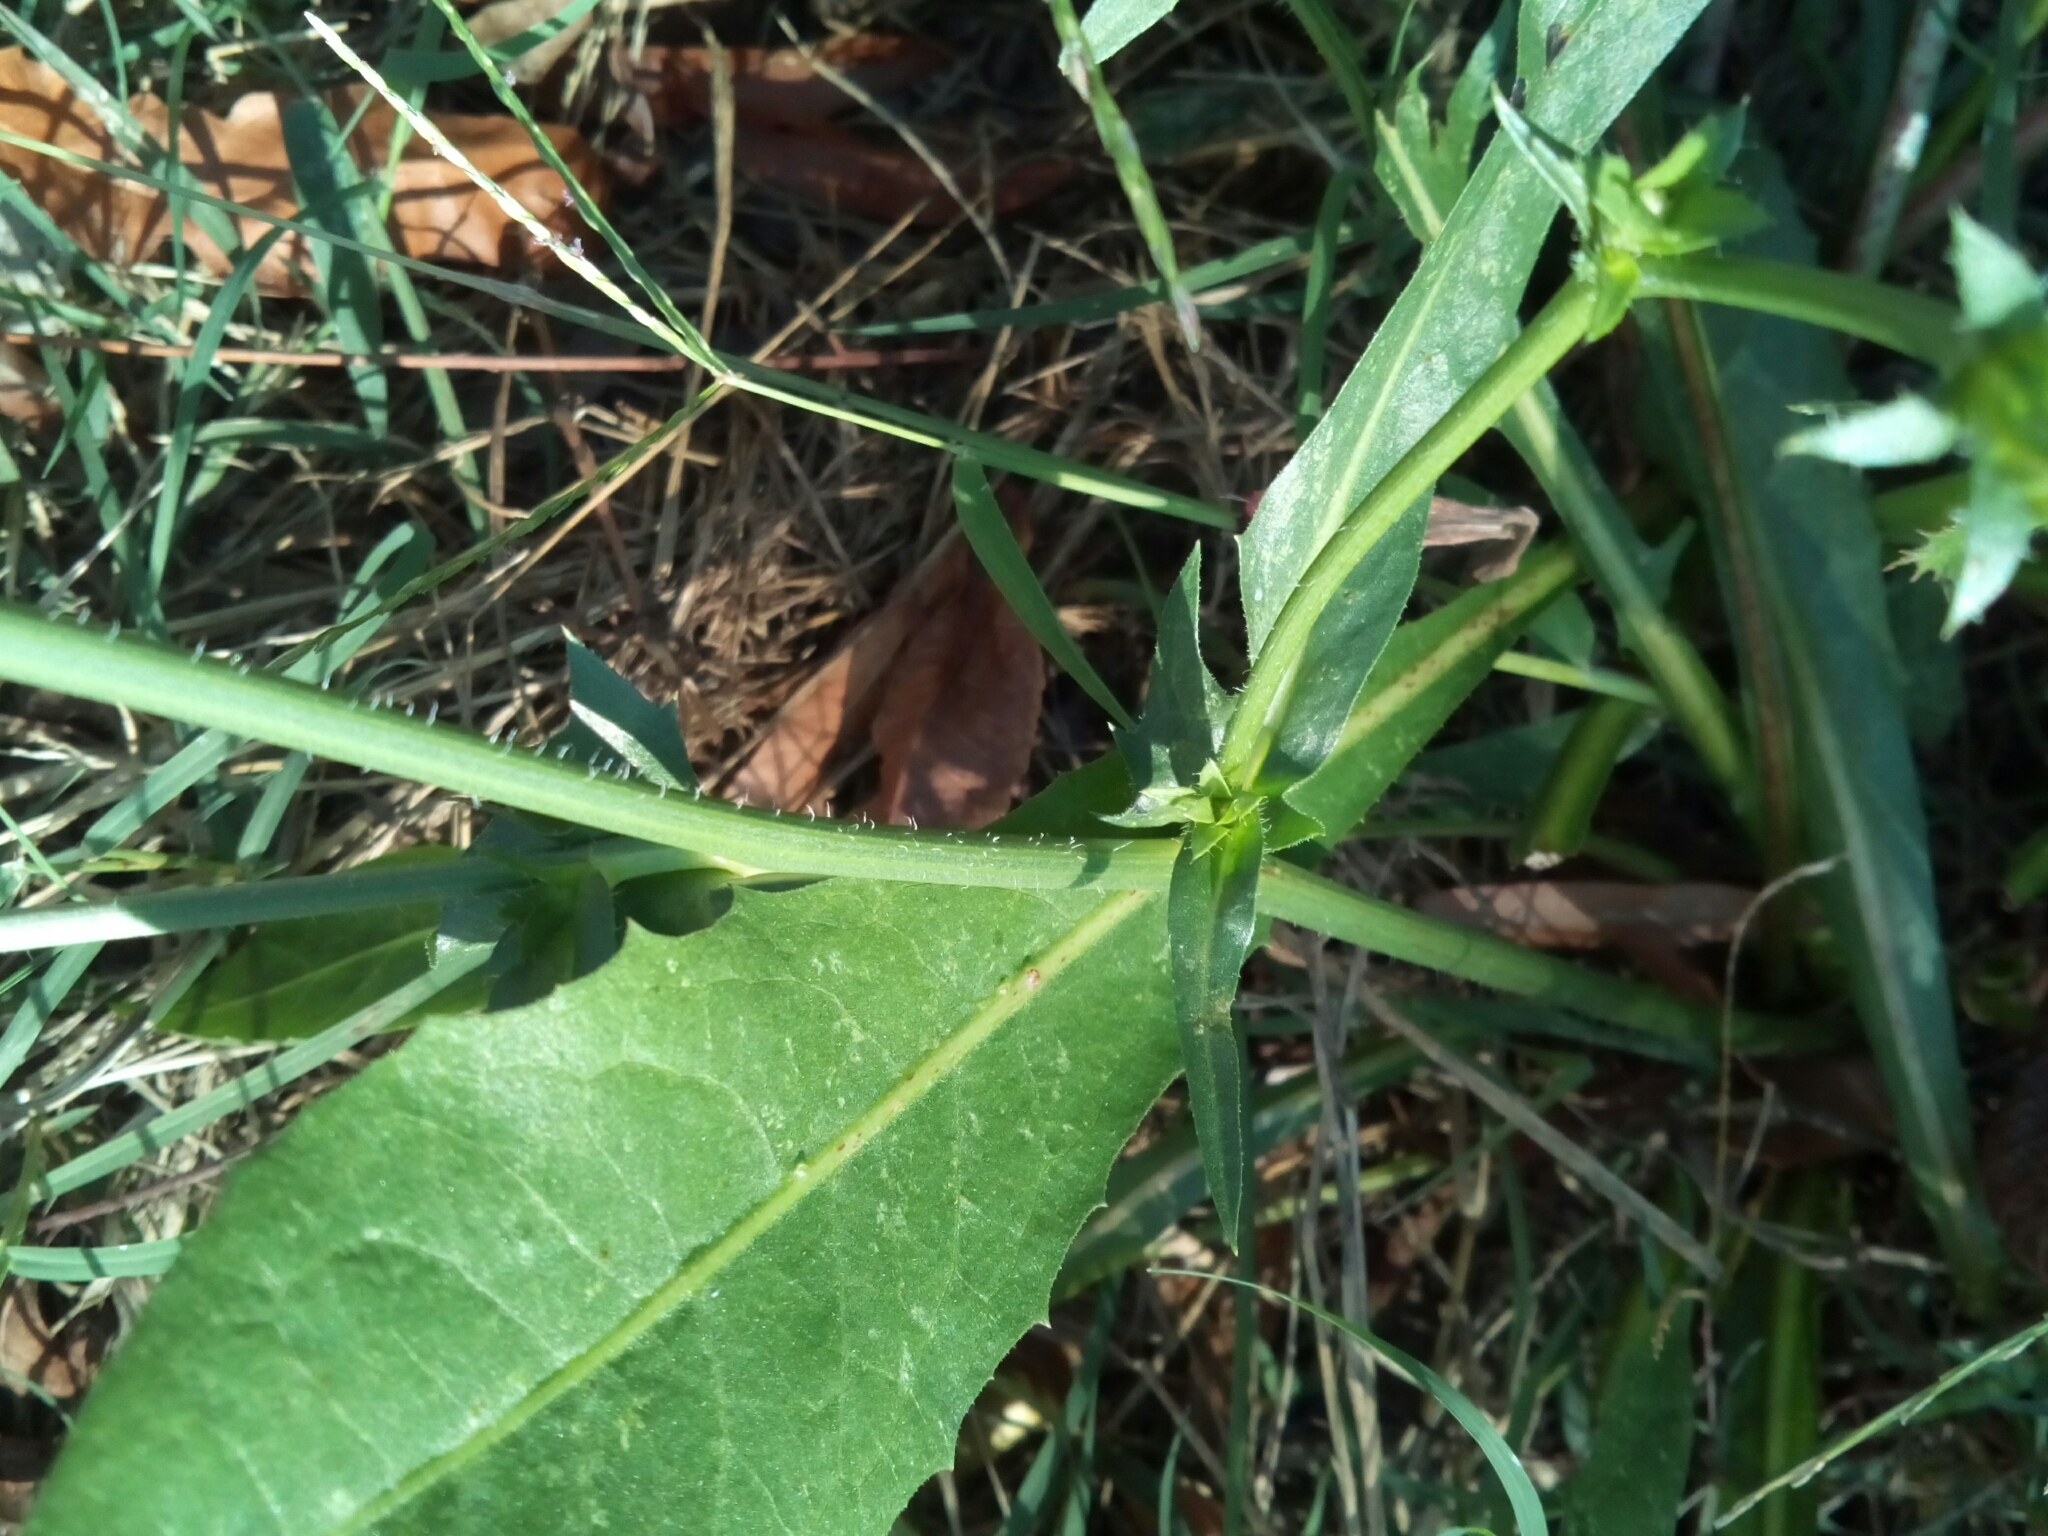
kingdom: Plantae
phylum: Tracheophyta
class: Magnoliopsida
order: Asterales
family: Asteraceae
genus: Cichorium
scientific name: Cichorium intybus
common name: Chicory
